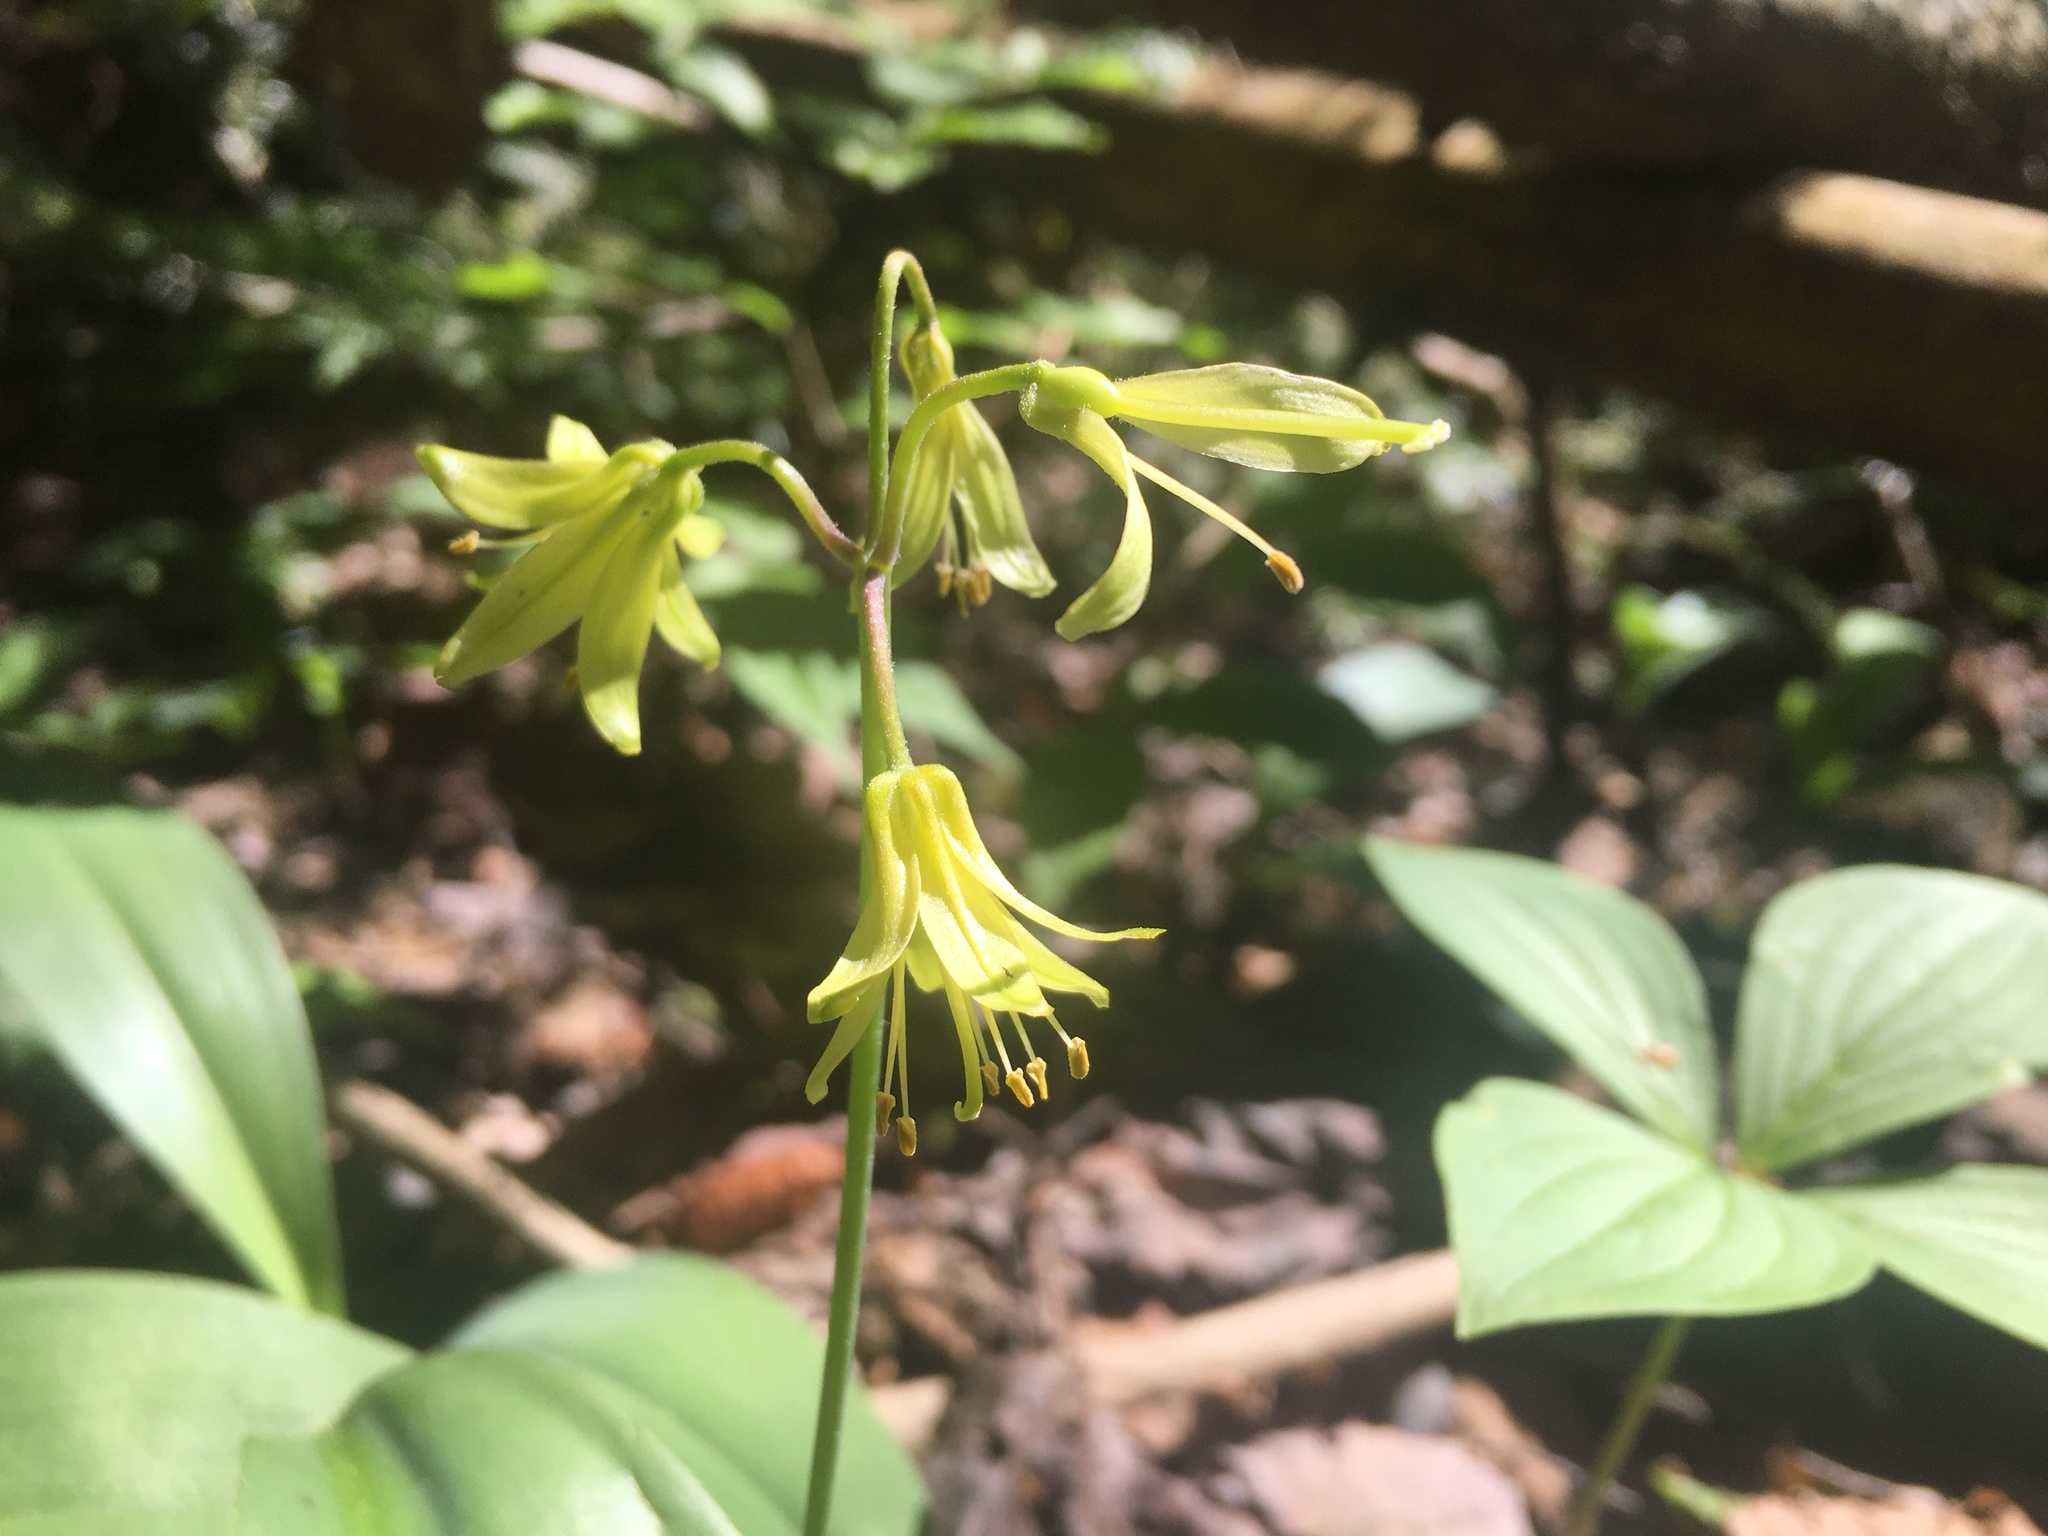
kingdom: Plantae
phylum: Tracheophyta
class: Liliopsida
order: Liliales
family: Liliaceae
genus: Clintonia
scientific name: Clintonia borealis
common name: Yellow clintonia
